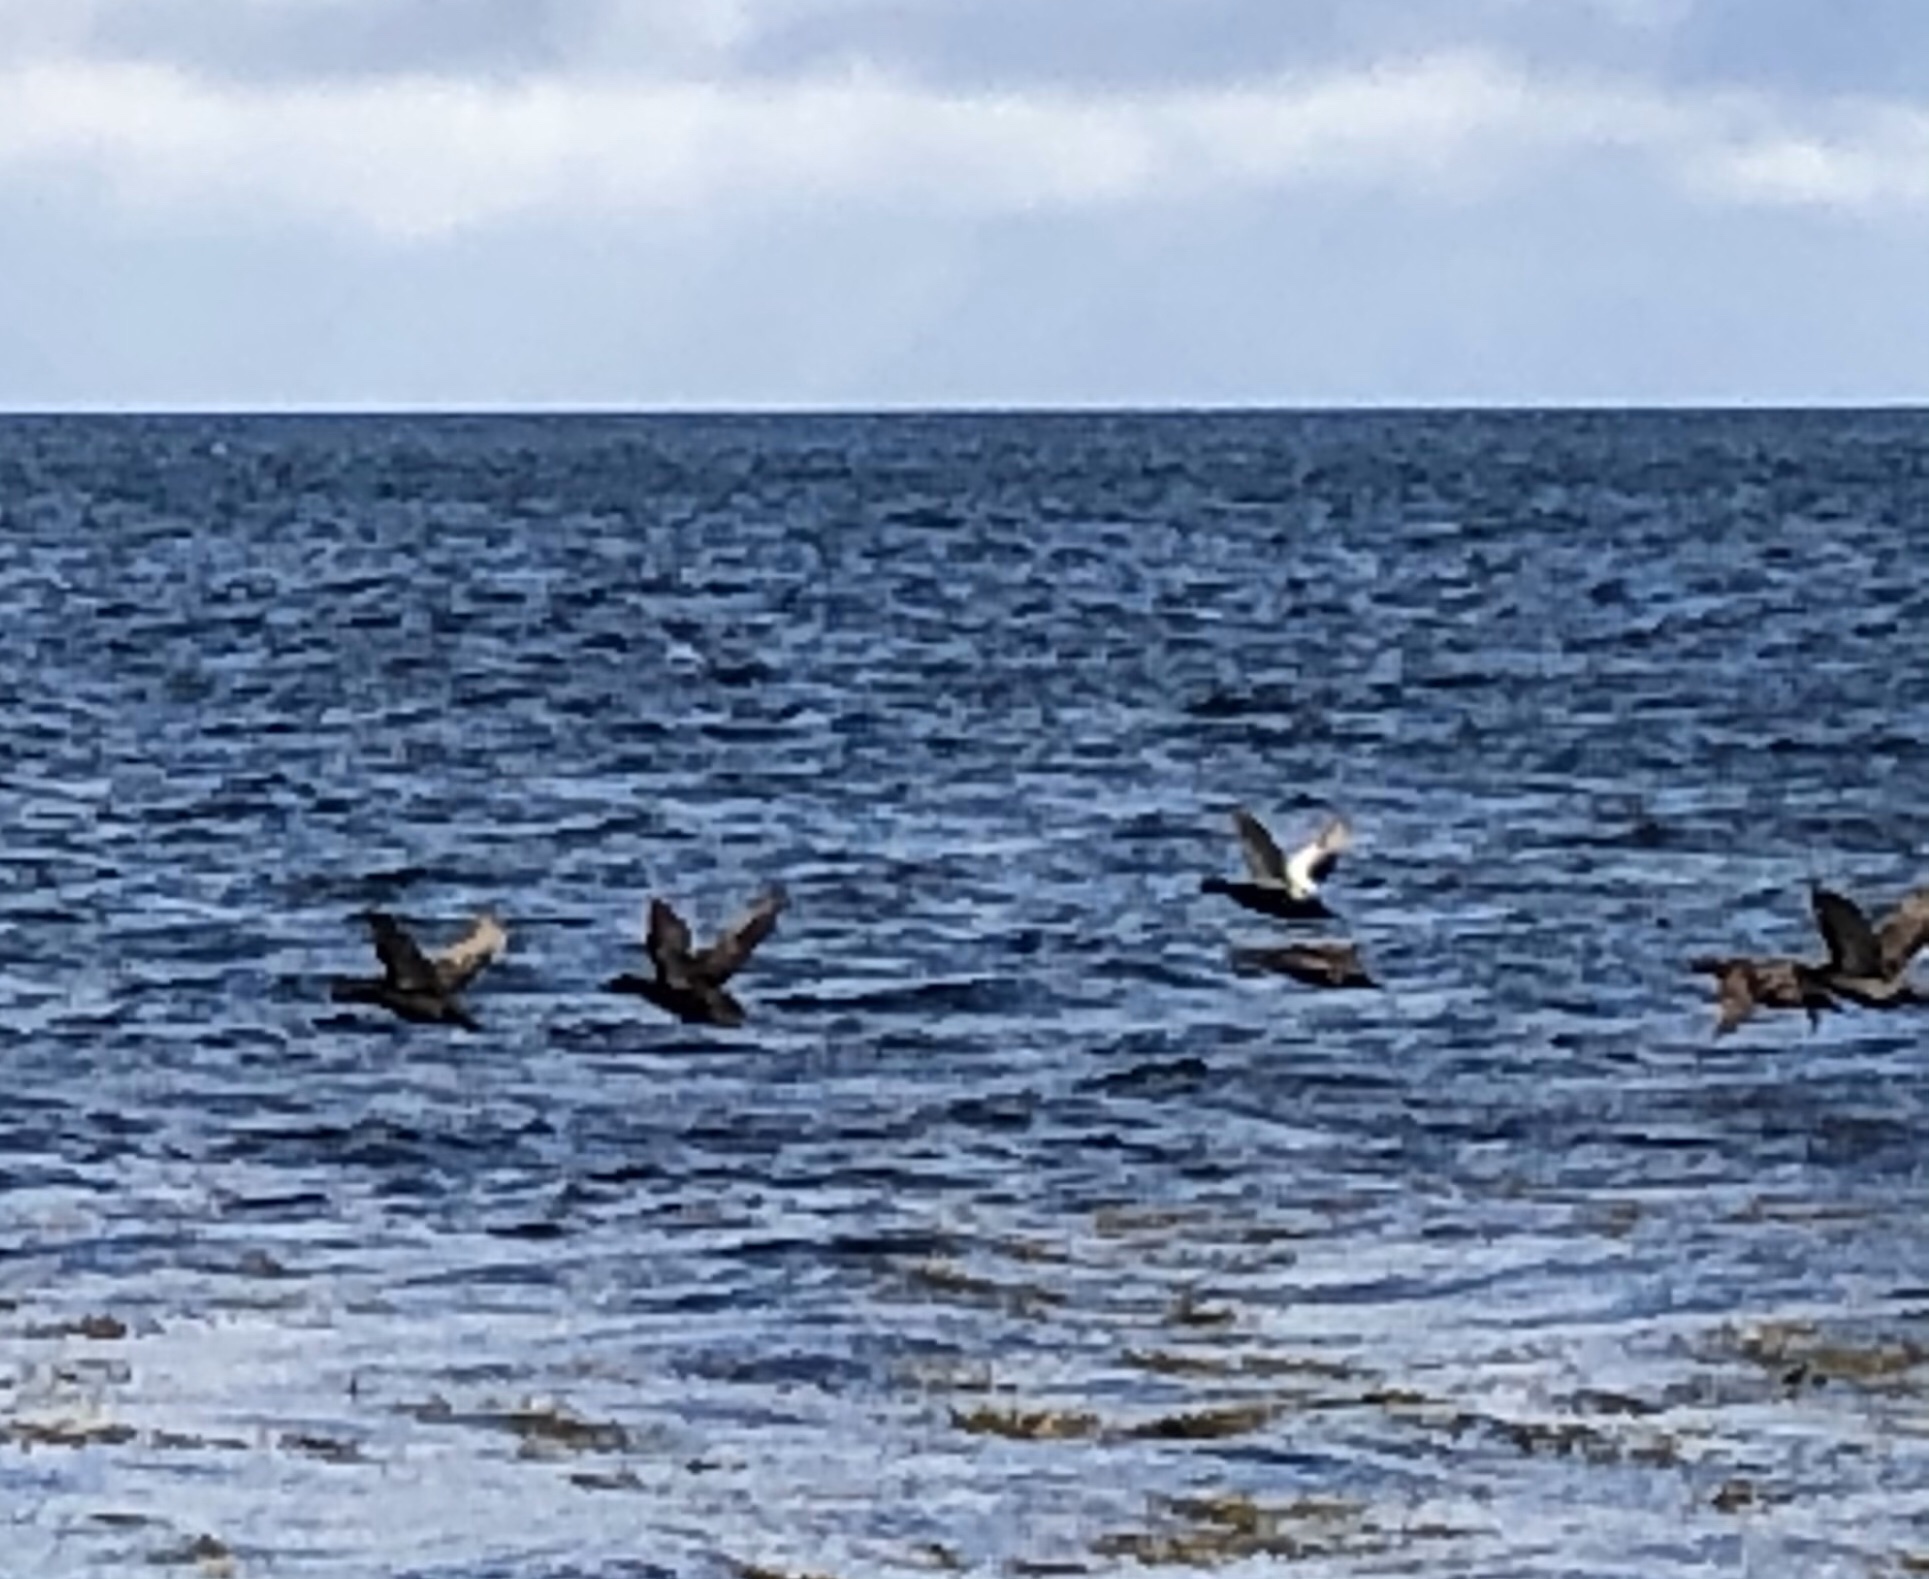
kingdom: Animalia
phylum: Chordata
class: Aves
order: Anseriformes
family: Anatidae
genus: Somateria
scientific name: Somateria mollissima
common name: Common eider
